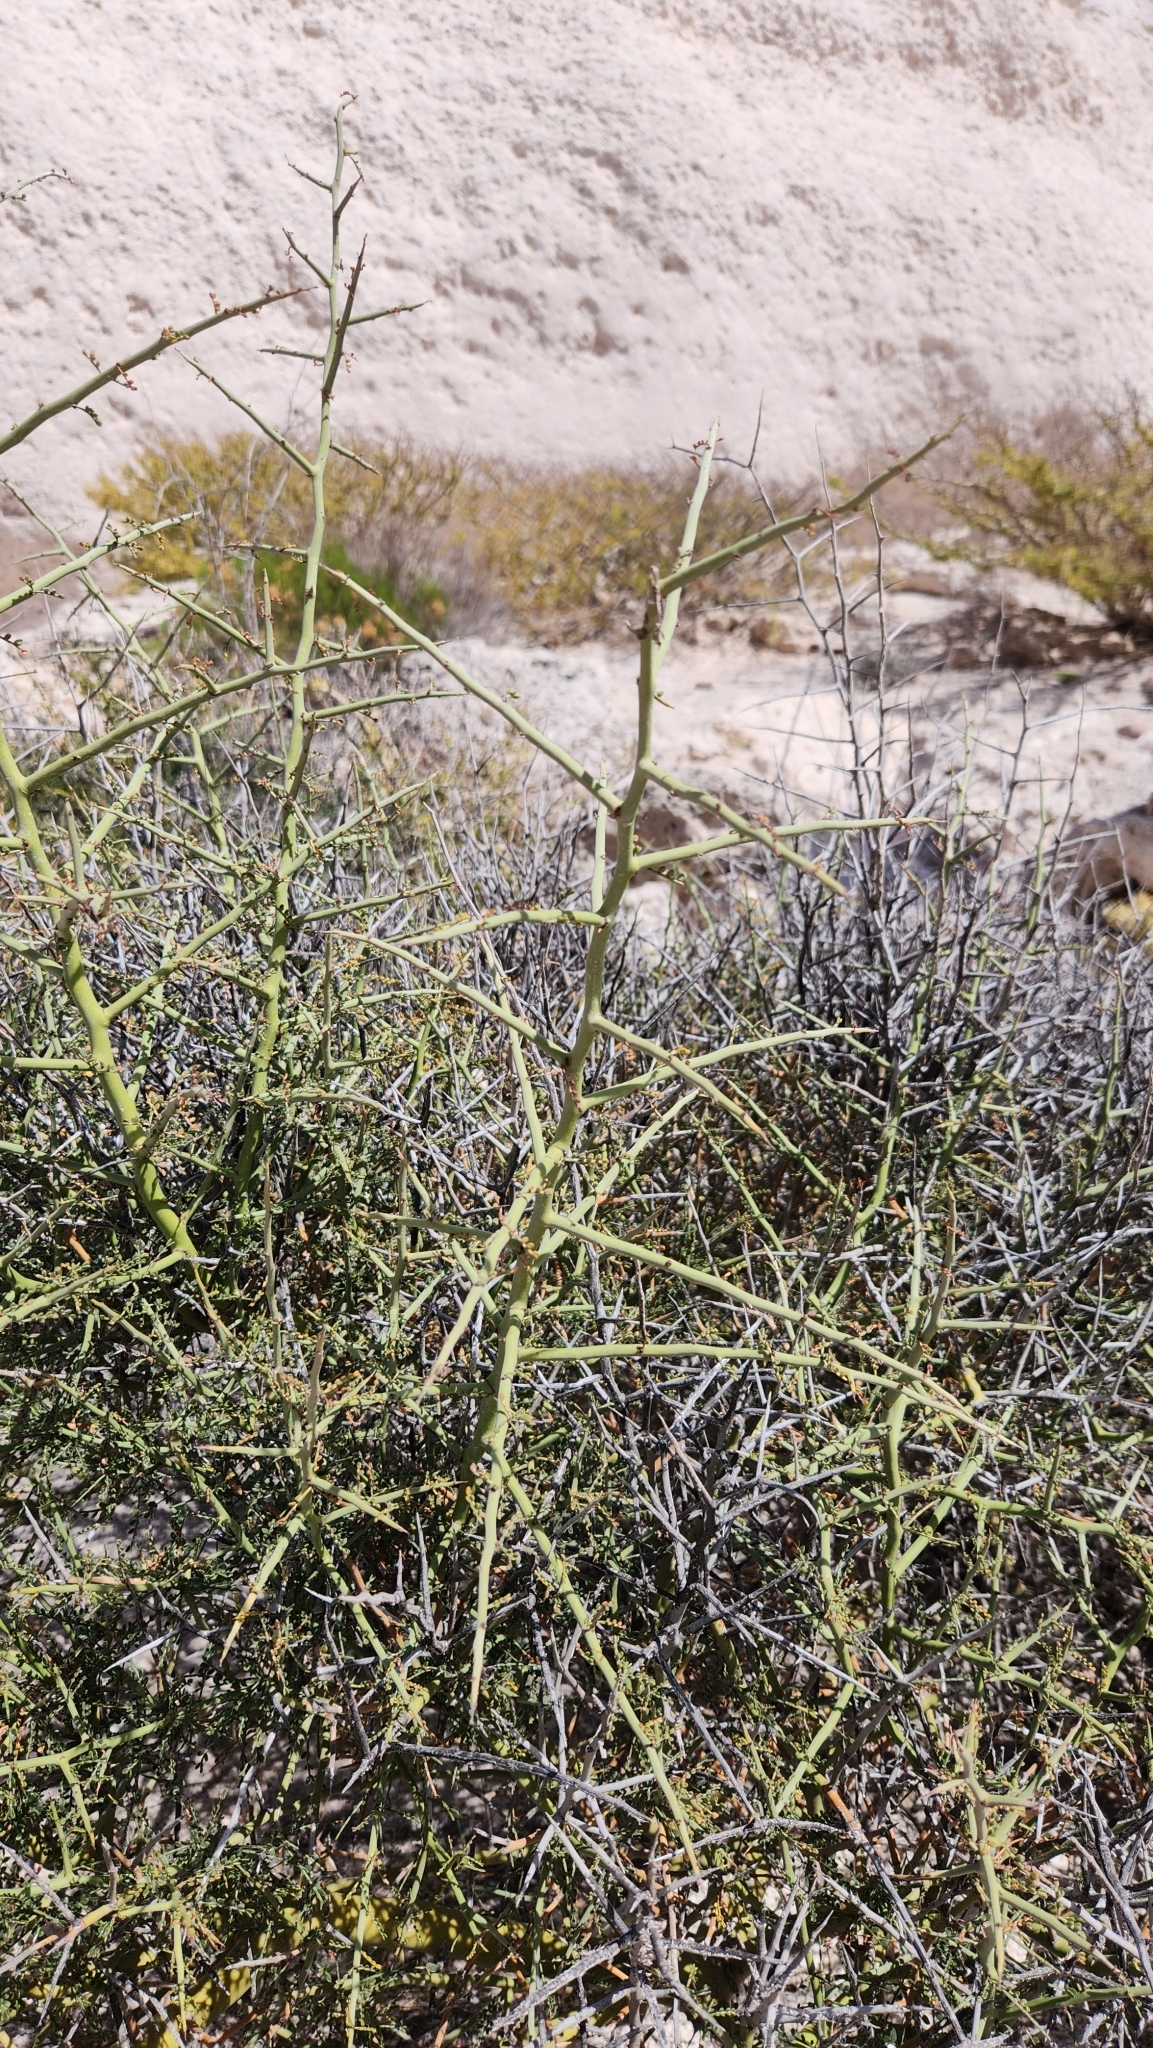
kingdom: Plantae
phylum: Tracheophyta
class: Magnoliopsida
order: Fabales
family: Fabaceae
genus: Parkinsonia
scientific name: Parkinsonia microphylla
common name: Yellow paloverde
